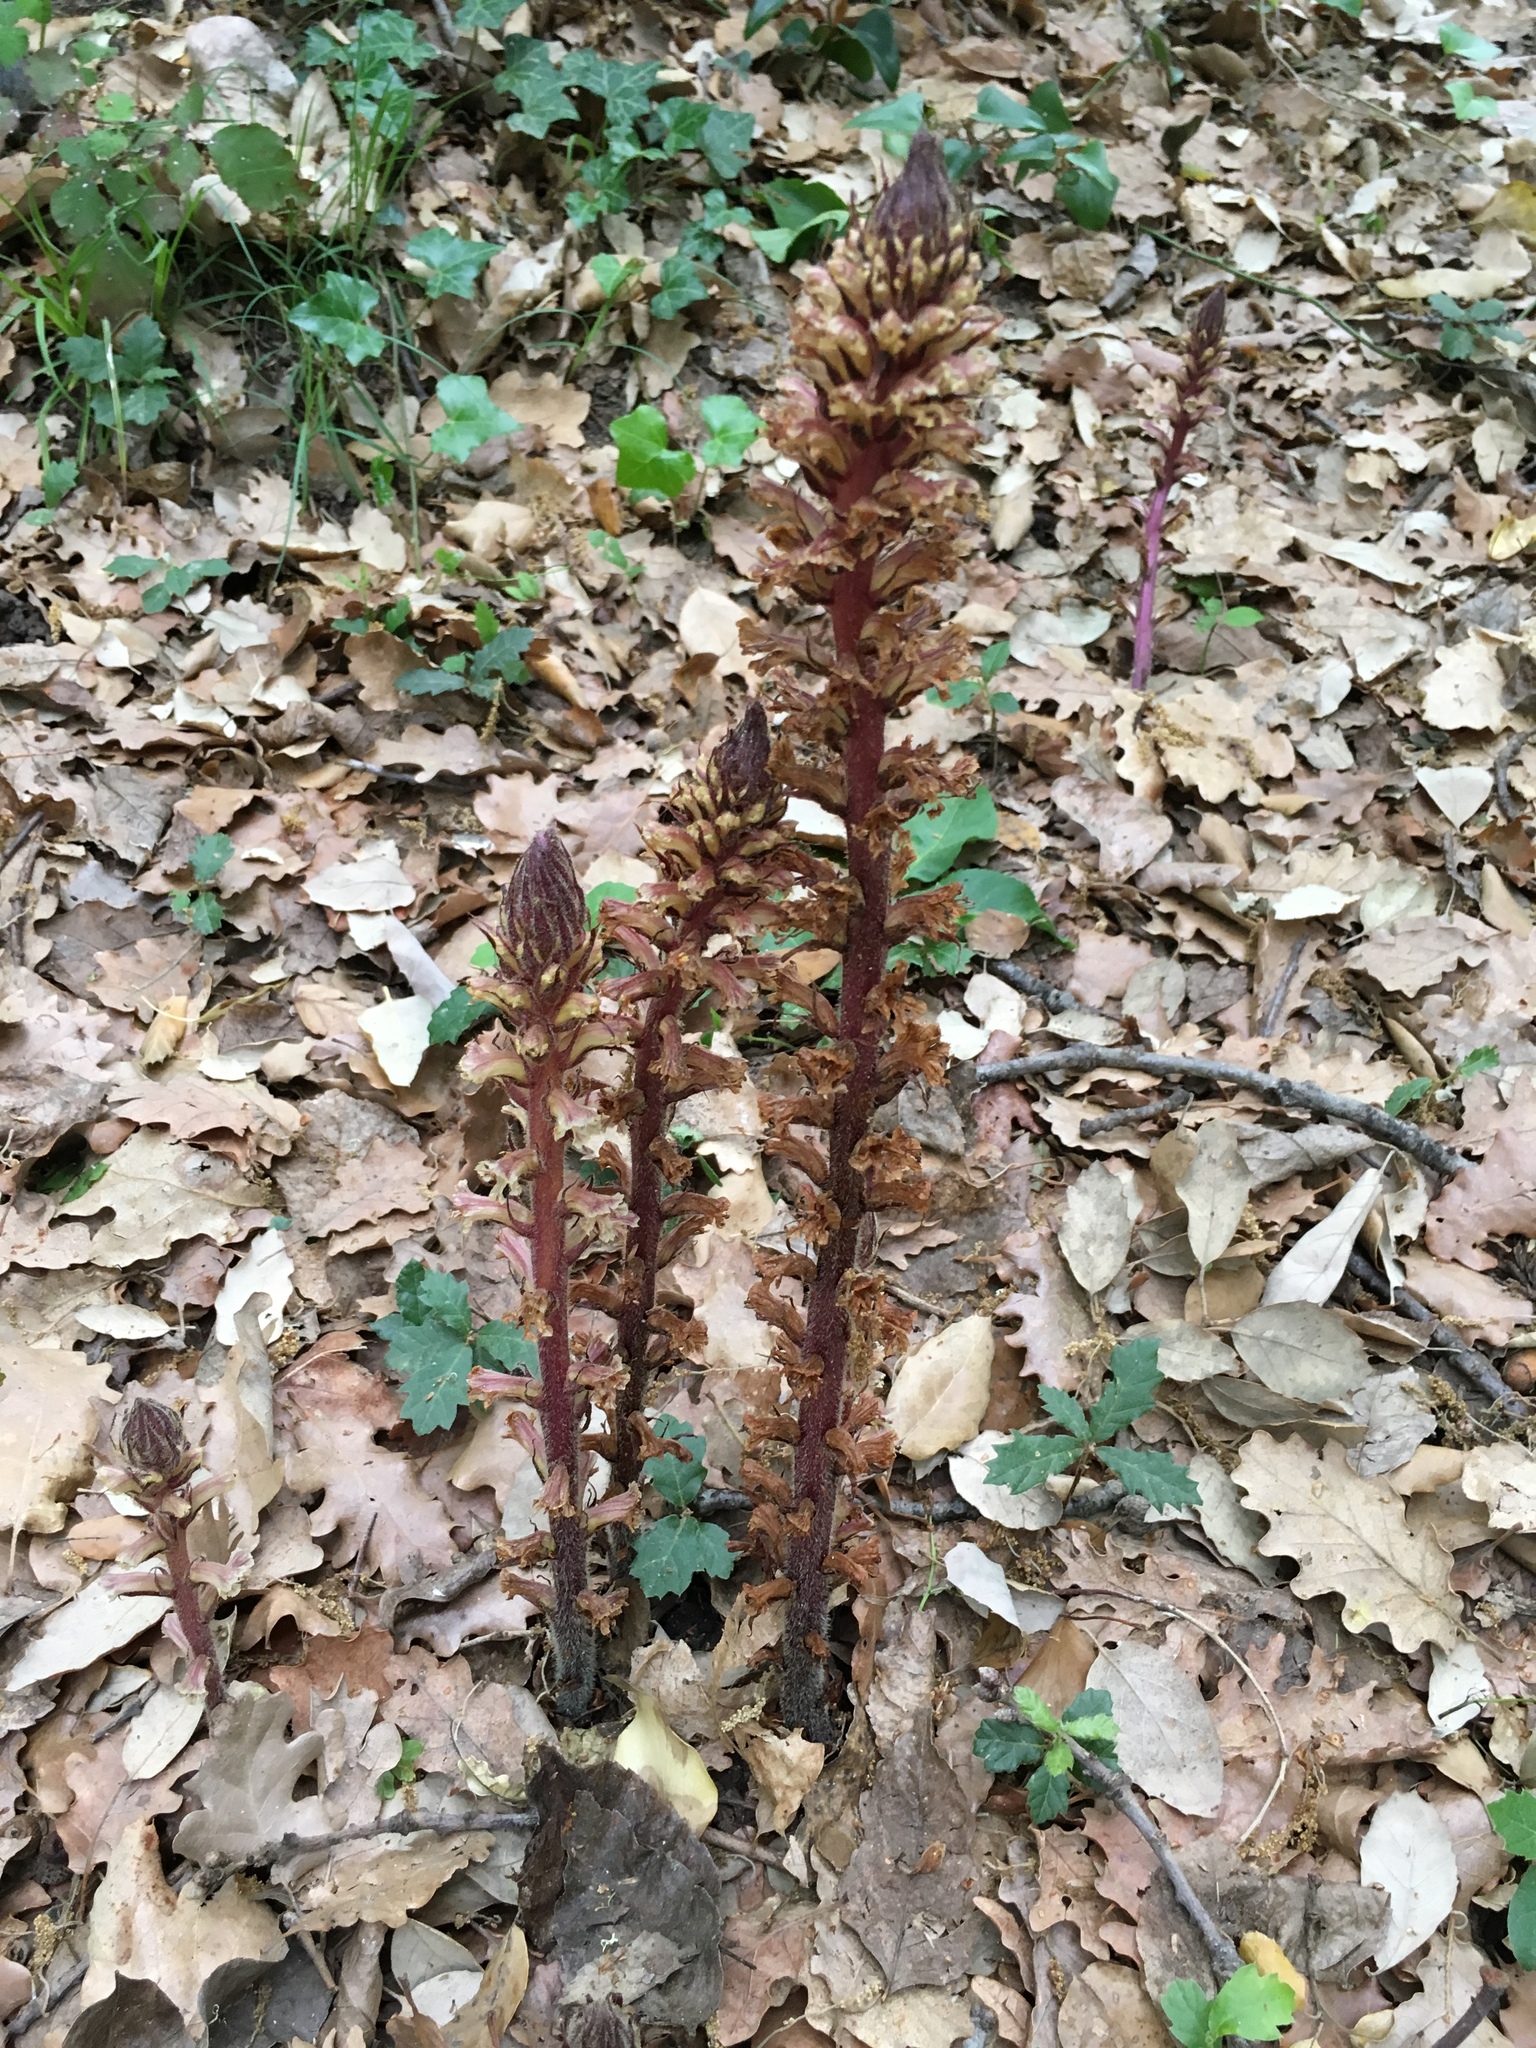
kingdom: Plantae
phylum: Tracheophyta
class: Magnoliopsida
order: Lamiales
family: Orobanchaceae
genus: Orobanche
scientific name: Orobanche hederae
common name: Ivy broomrape
